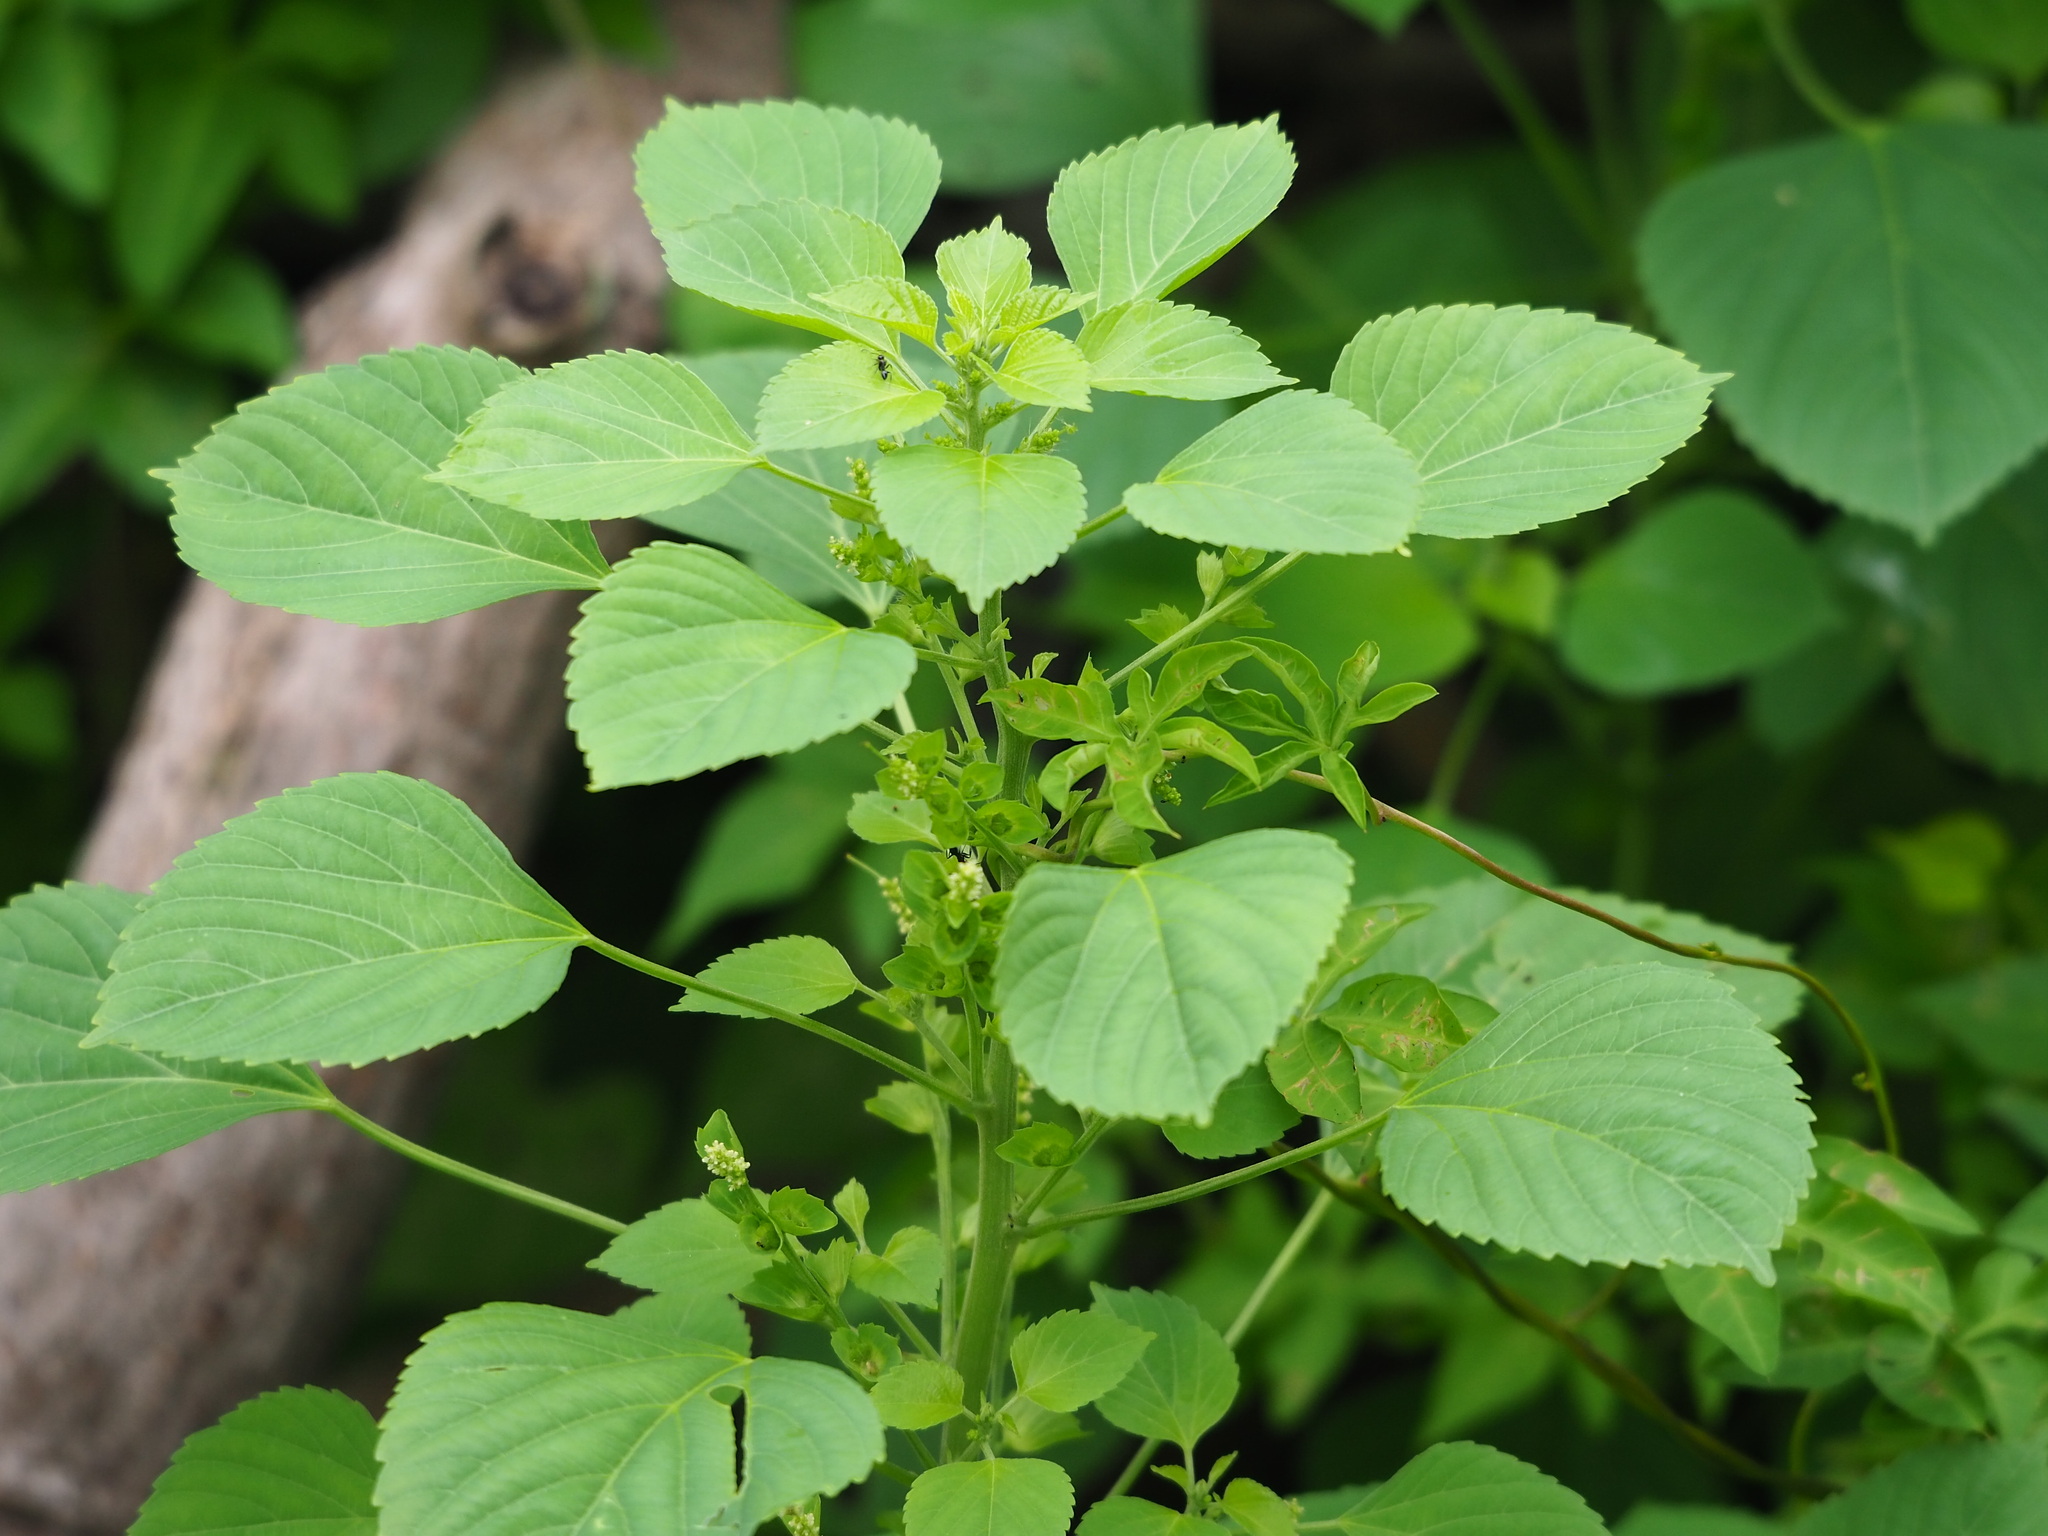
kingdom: Plantae
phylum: Tracheophyta
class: Magnoliopsida
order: Malpighiales
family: Euphorbiaceae
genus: Acalypha
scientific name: Acalypha indica
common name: Indian acalypha
